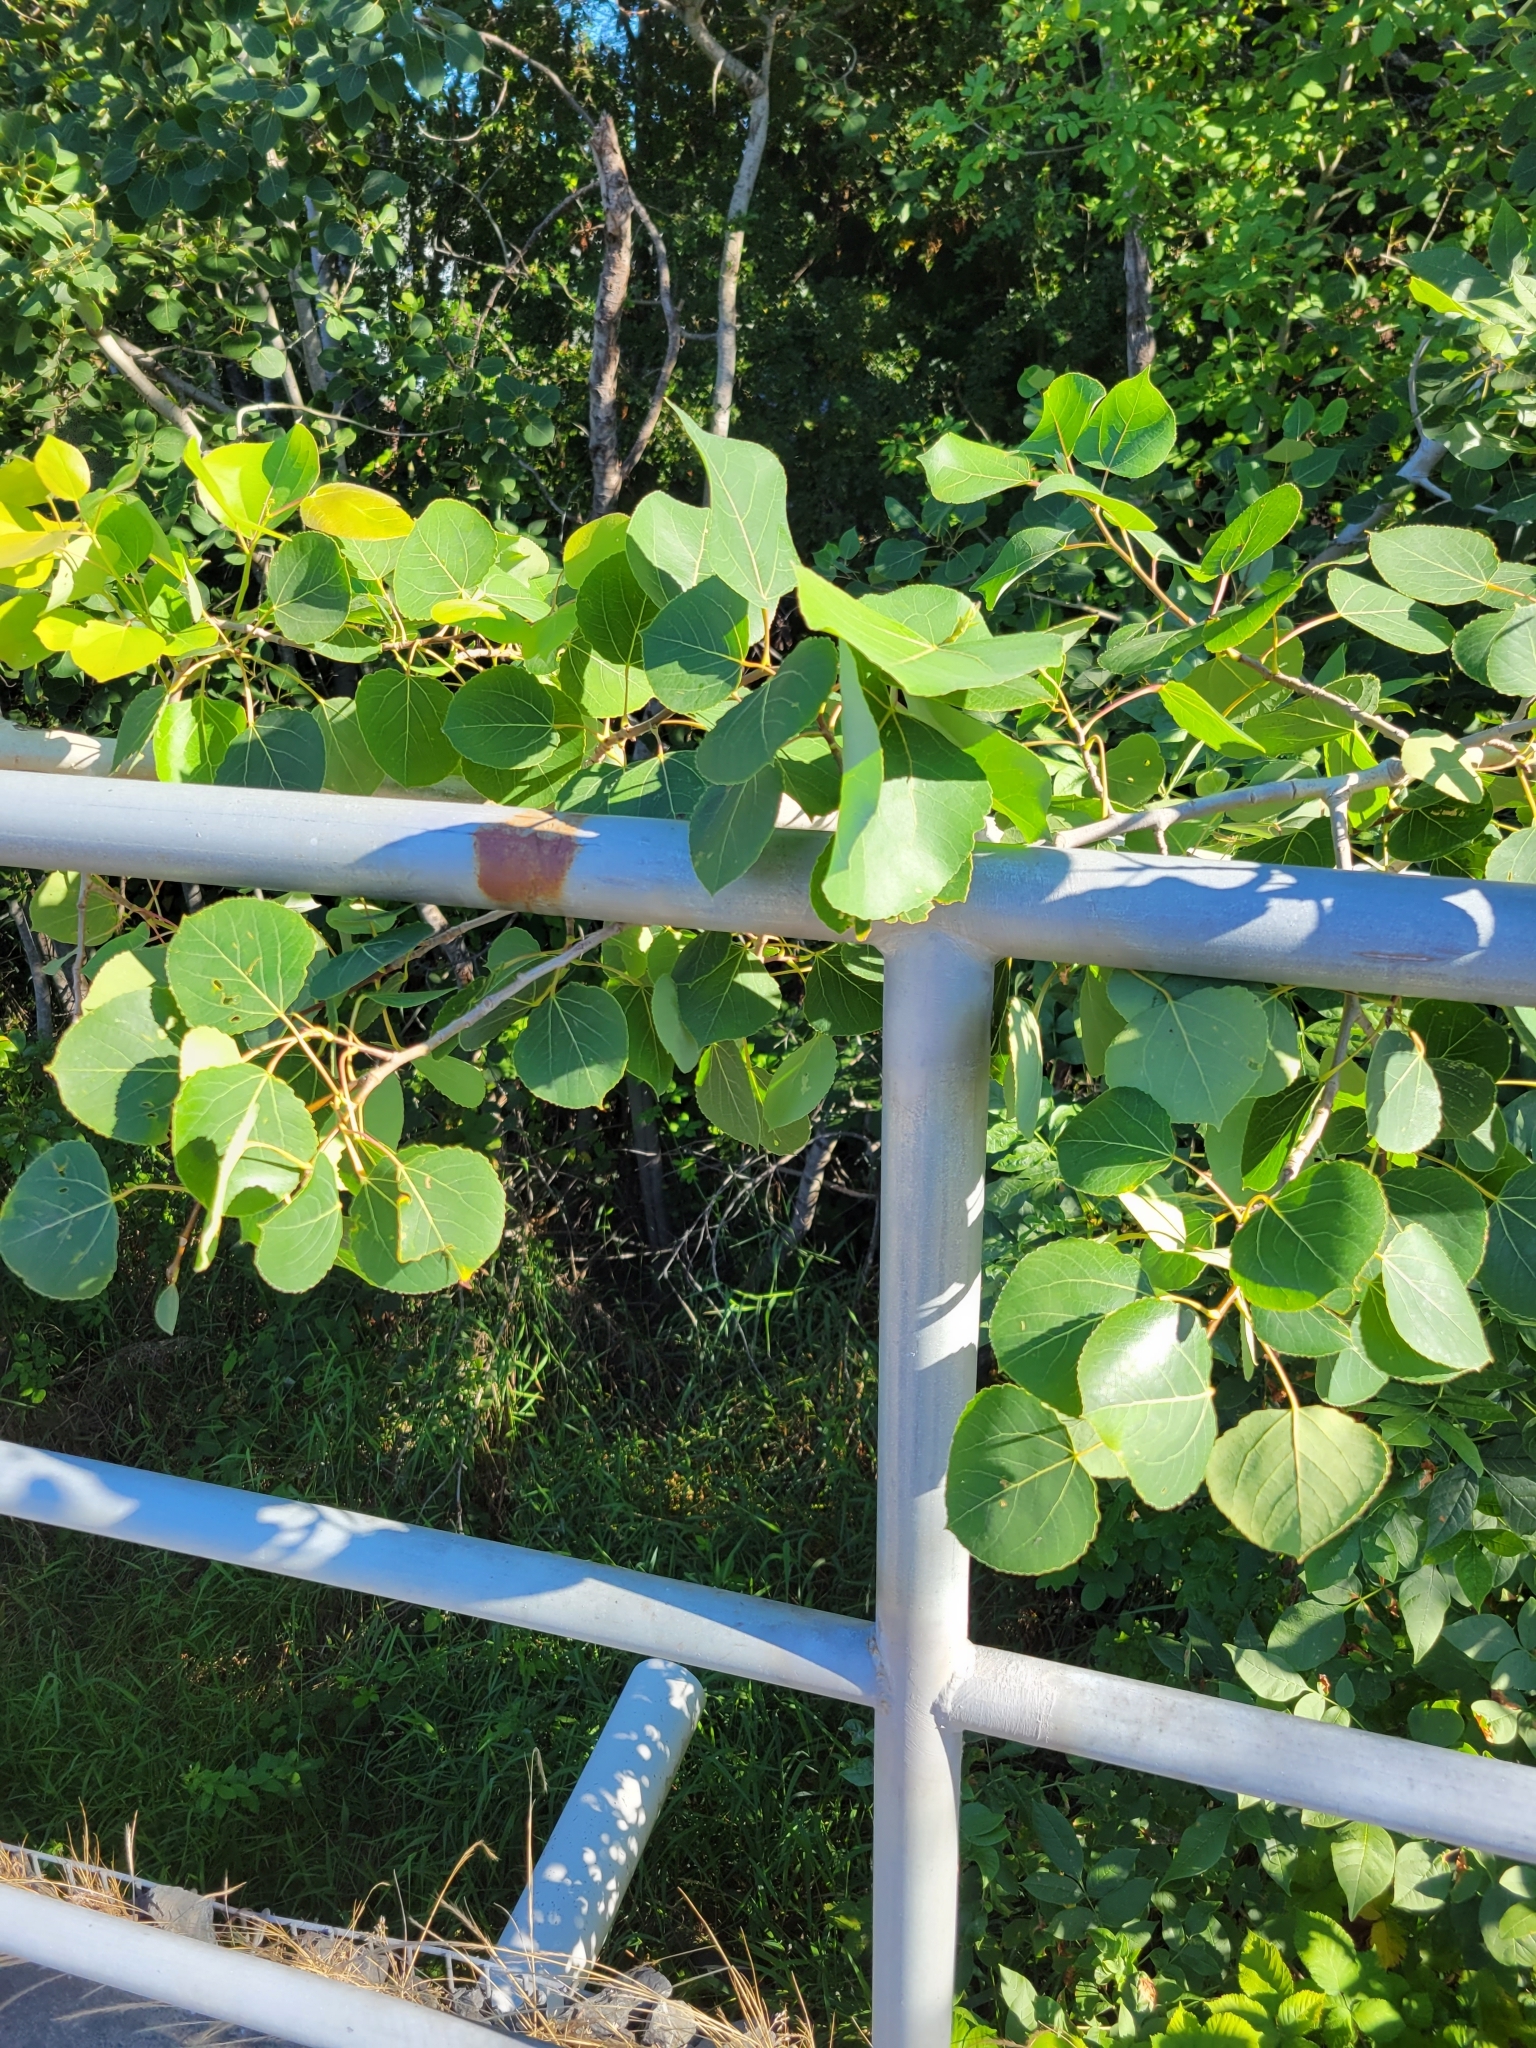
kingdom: Plantae
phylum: Tracheophyta
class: Magnoliopsida
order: Malpighiales
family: Salicaceae
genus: Populus
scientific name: Populus tremuloides
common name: Quaking aspen
